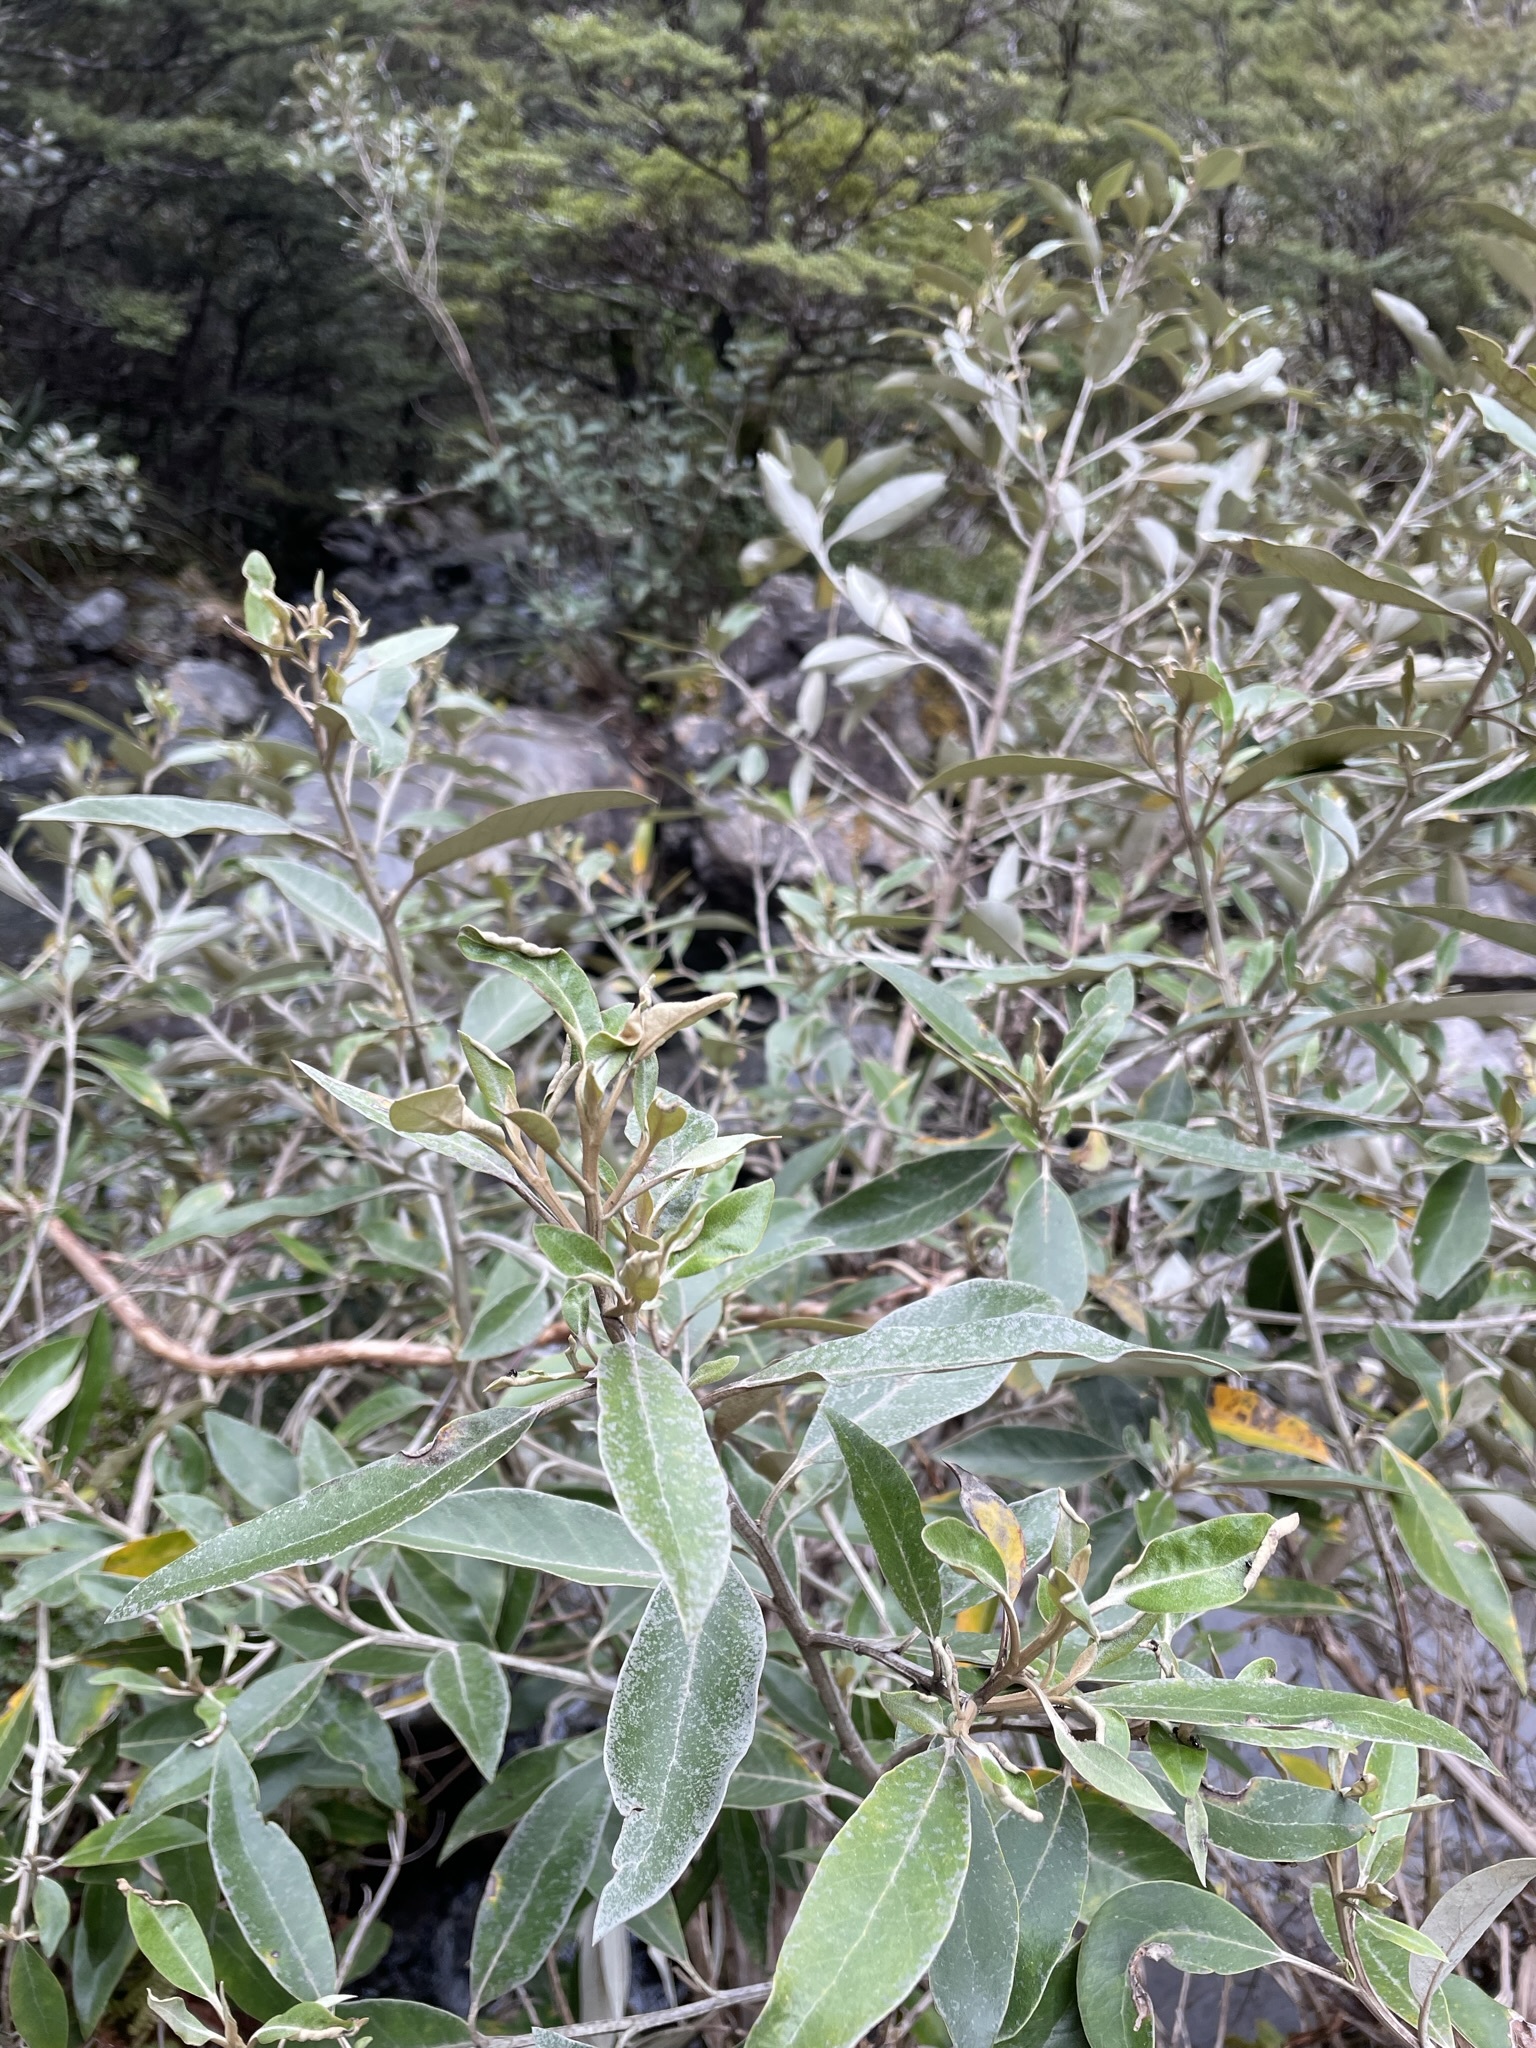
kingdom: Plantae
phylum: Tracheophyta
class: Magnoliopsida
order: Asterales
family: Asteraceae
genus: Olearia
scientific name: Olearia avicenniifolia
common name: Mangrove-leaf daisybush
